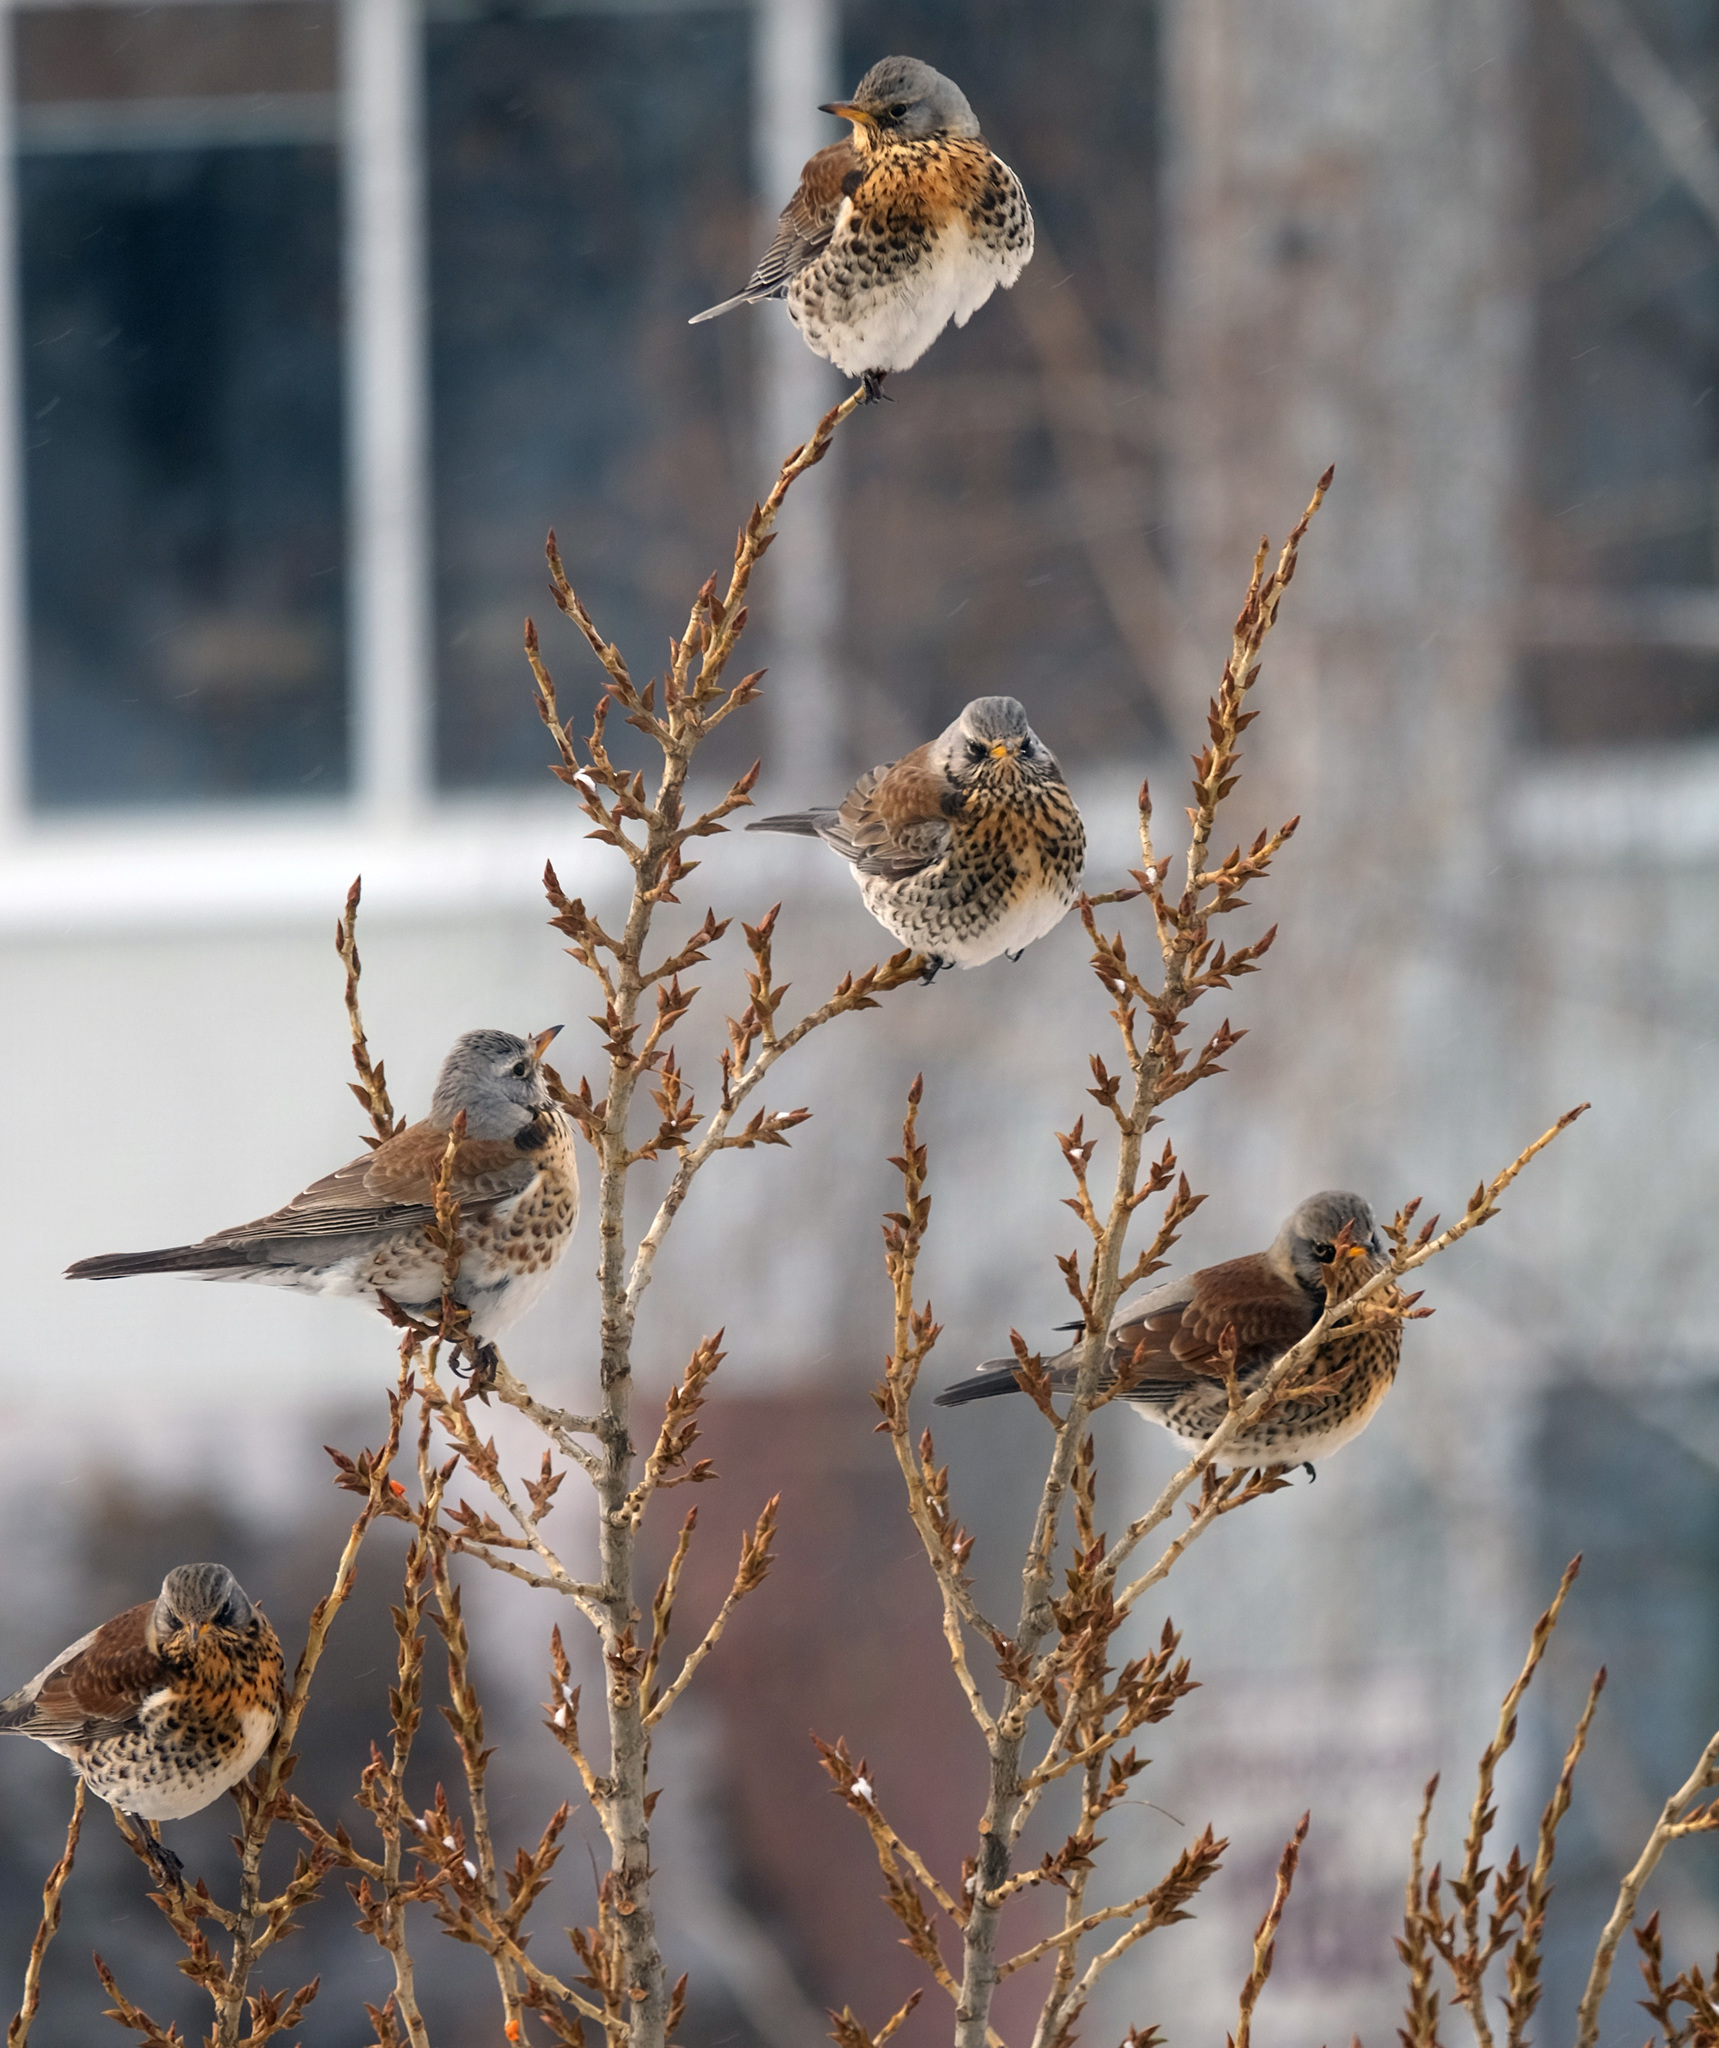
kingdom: Animalia
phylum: Chordata
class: Aves
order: Passeriformes
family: Turdidae
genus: Turdus
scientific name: Turdus pilaris
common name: Fieldfare
